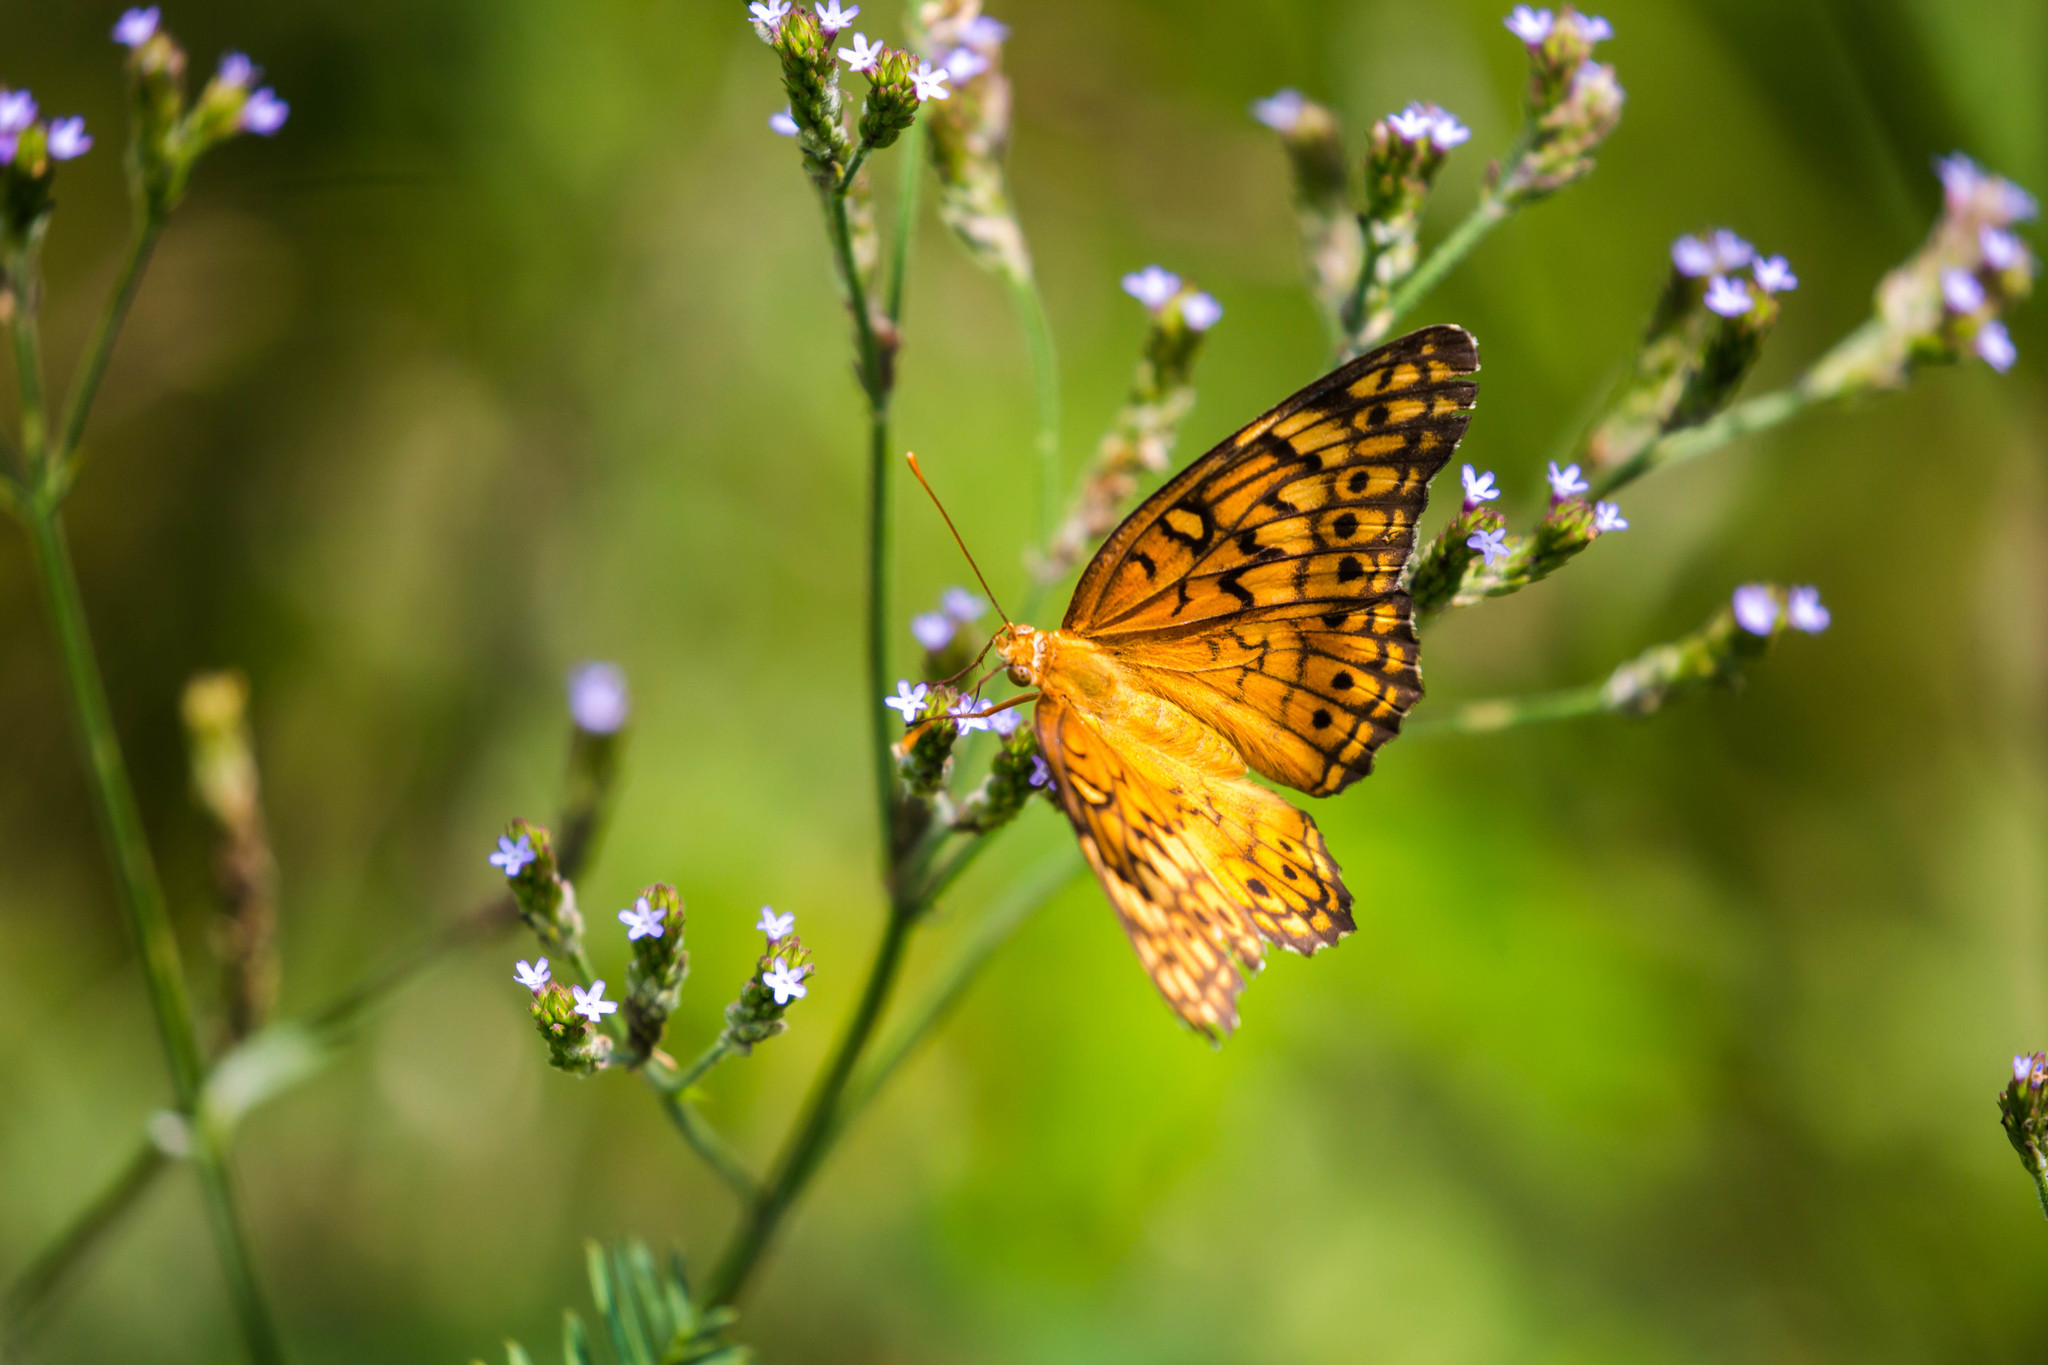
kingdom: Animalia
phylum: Arthropoda
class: Insecta
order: Lepidoptera
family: Nymphalidae
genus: Euptoieta
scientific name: Euptoieta claudia
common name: Variegated fritillary
